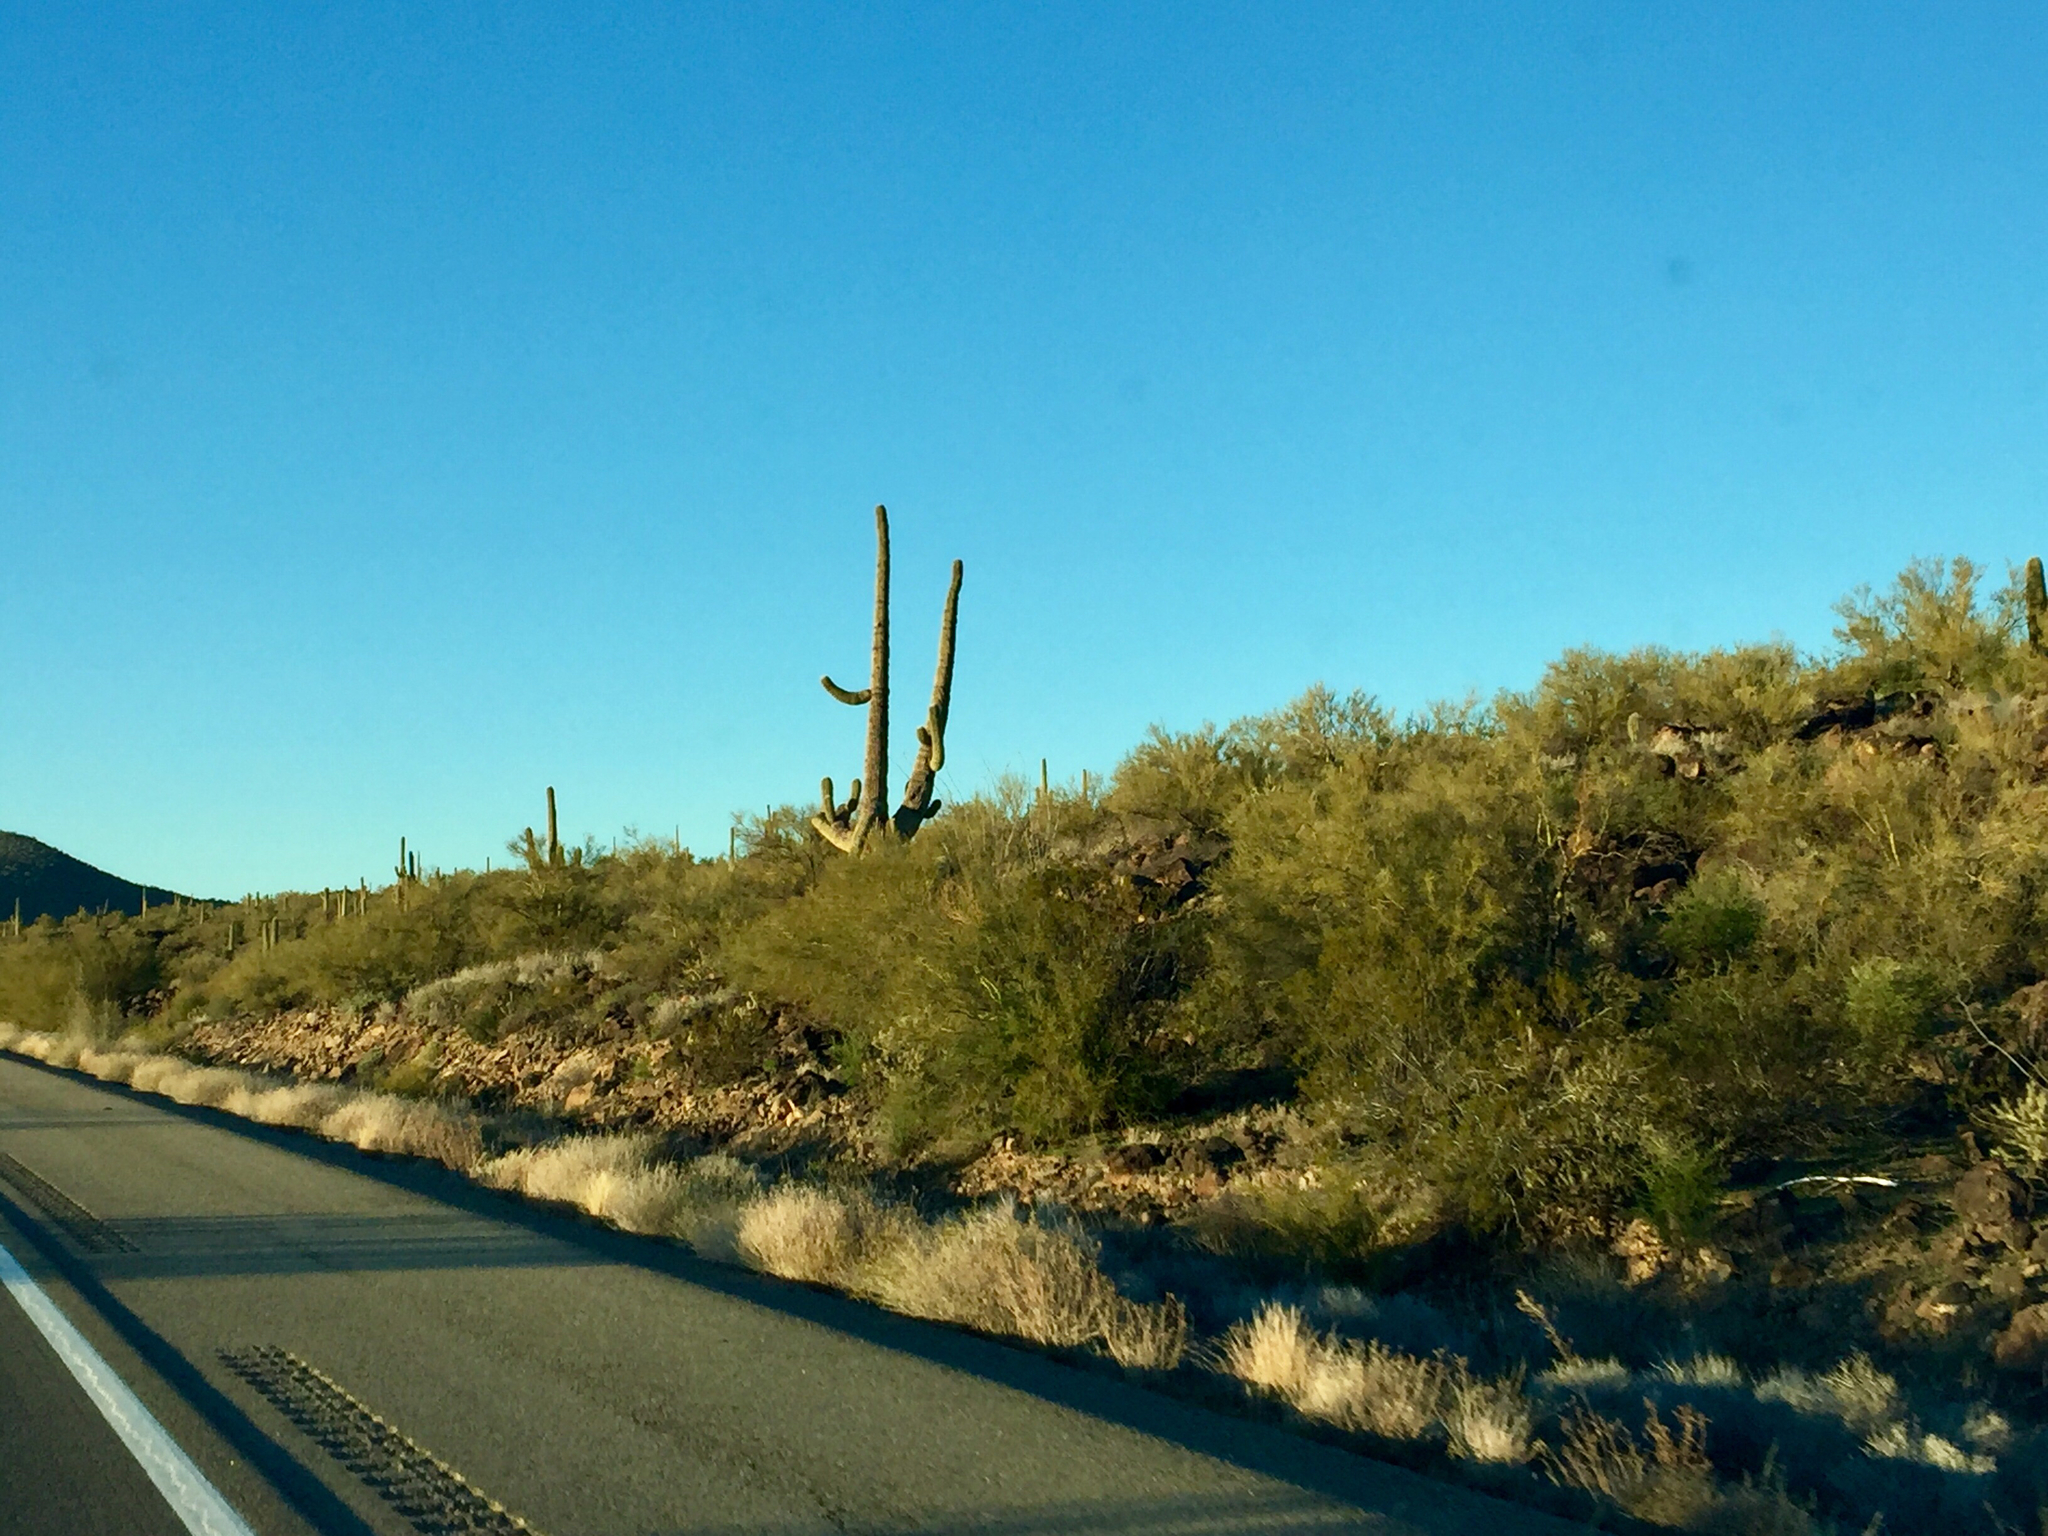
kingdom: Plantae
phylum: Tracheophyta
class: Magnoliopsida
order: Caryophyllales
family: Cactaceae
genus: Carnegiea
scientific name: Carnegiea gigantea
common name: Saguaro
